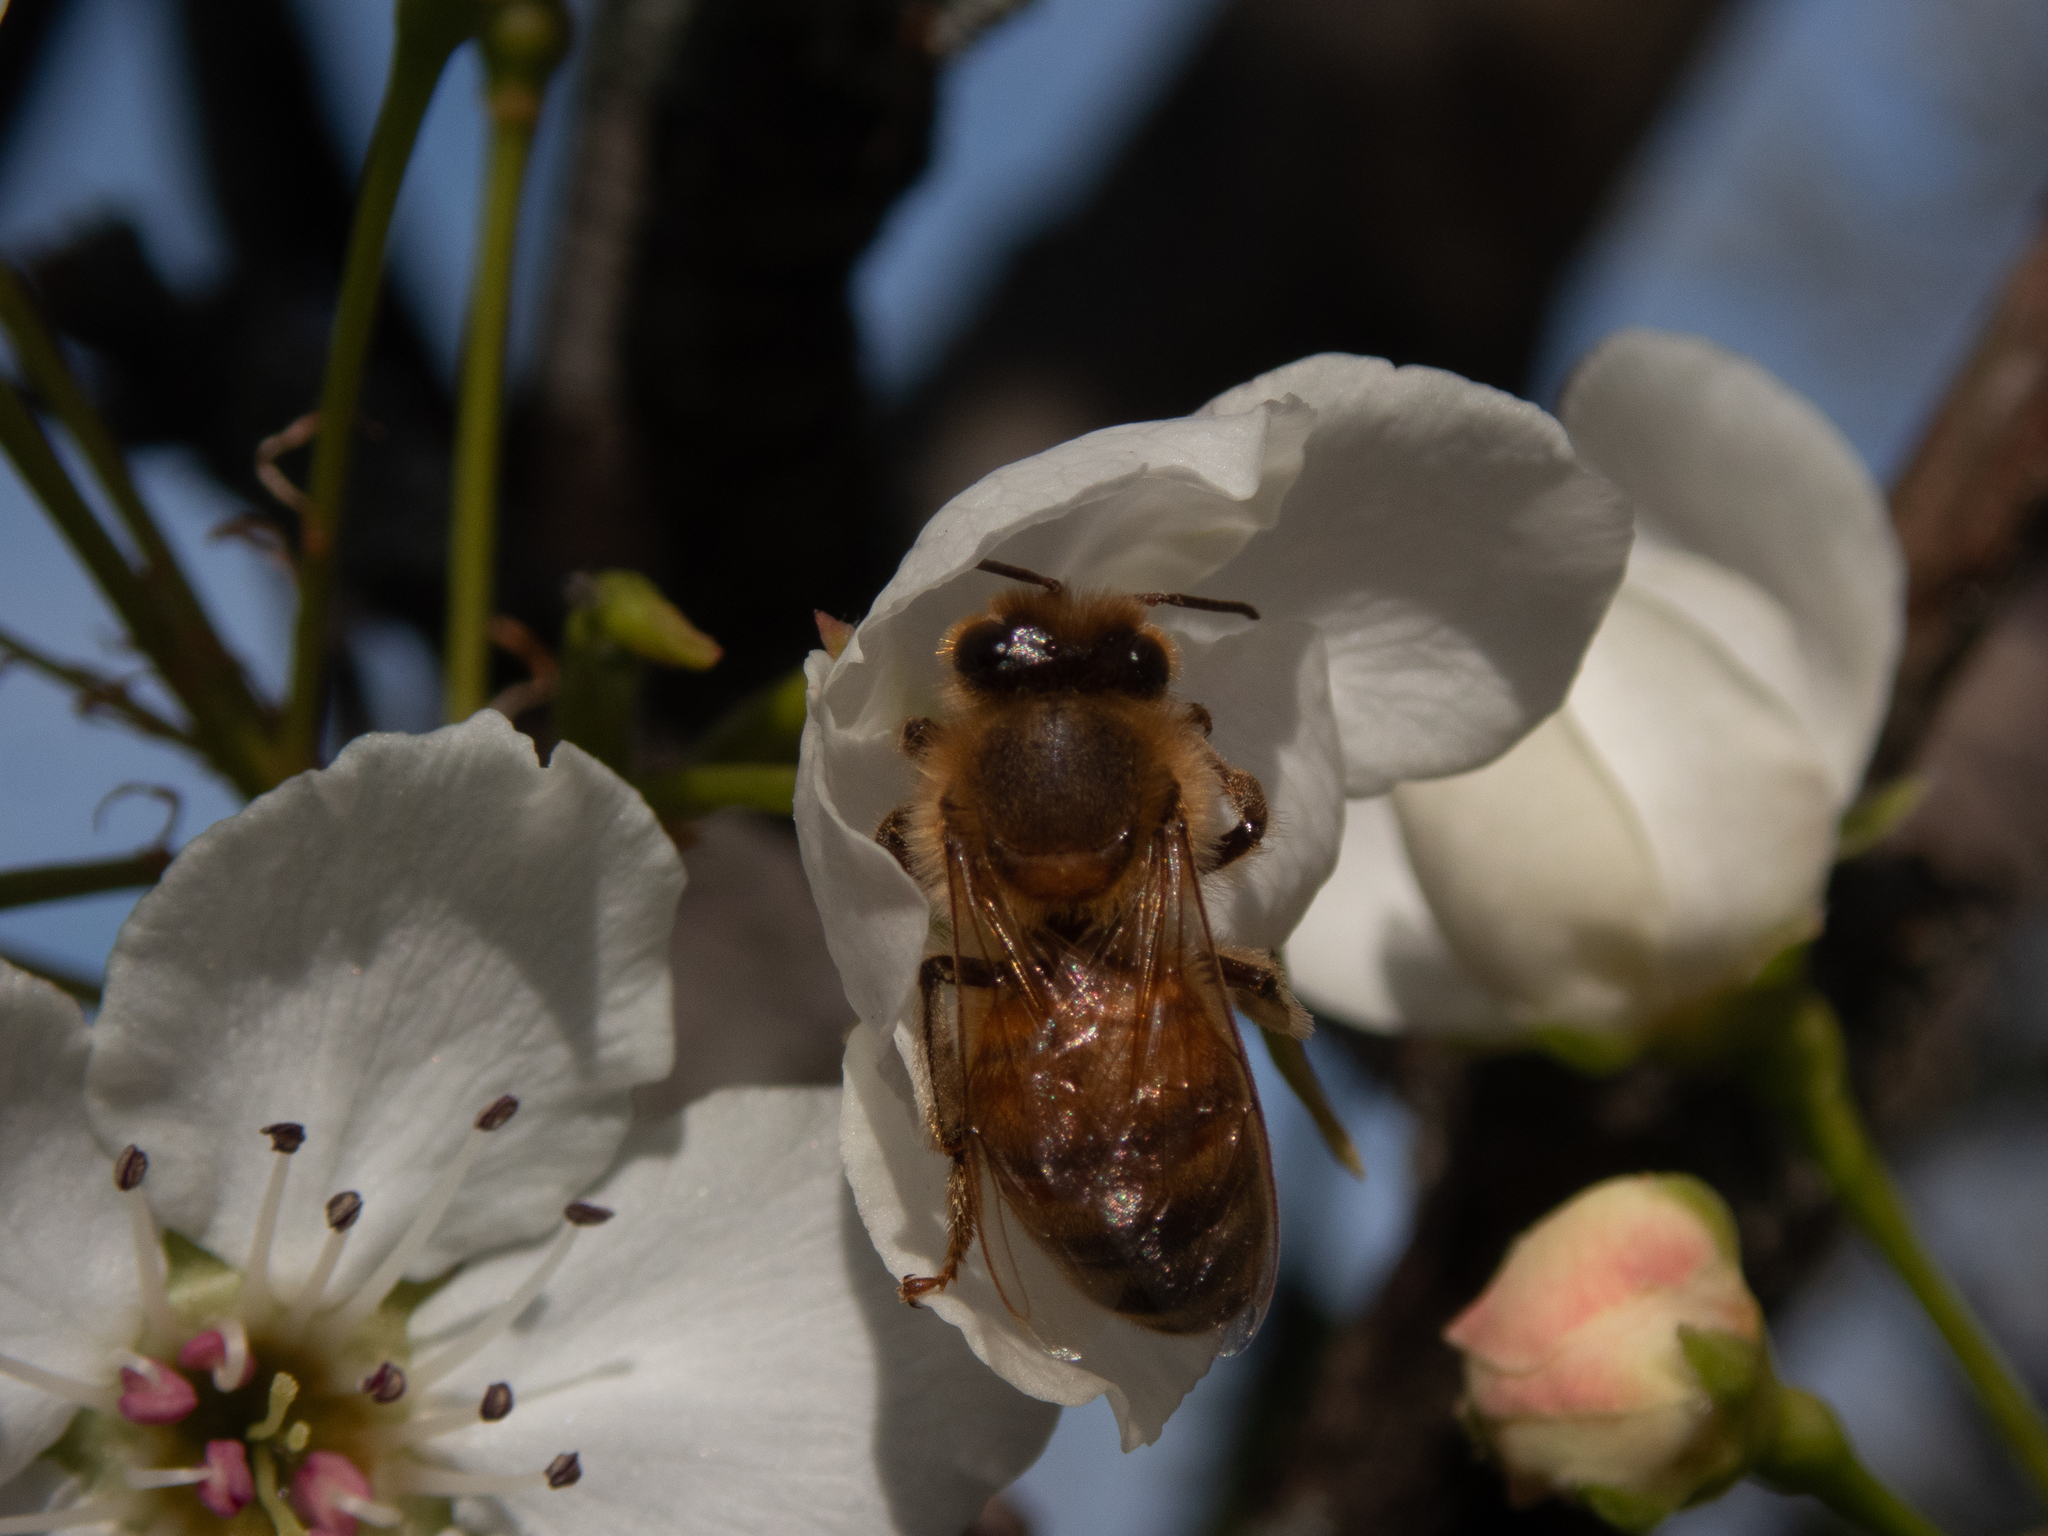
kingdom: Animalia
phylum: Arthropoda
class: Insecta
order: Hymenoptera
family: Apidae
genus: Apis
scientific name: Apis mellifera
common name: Honey bee
